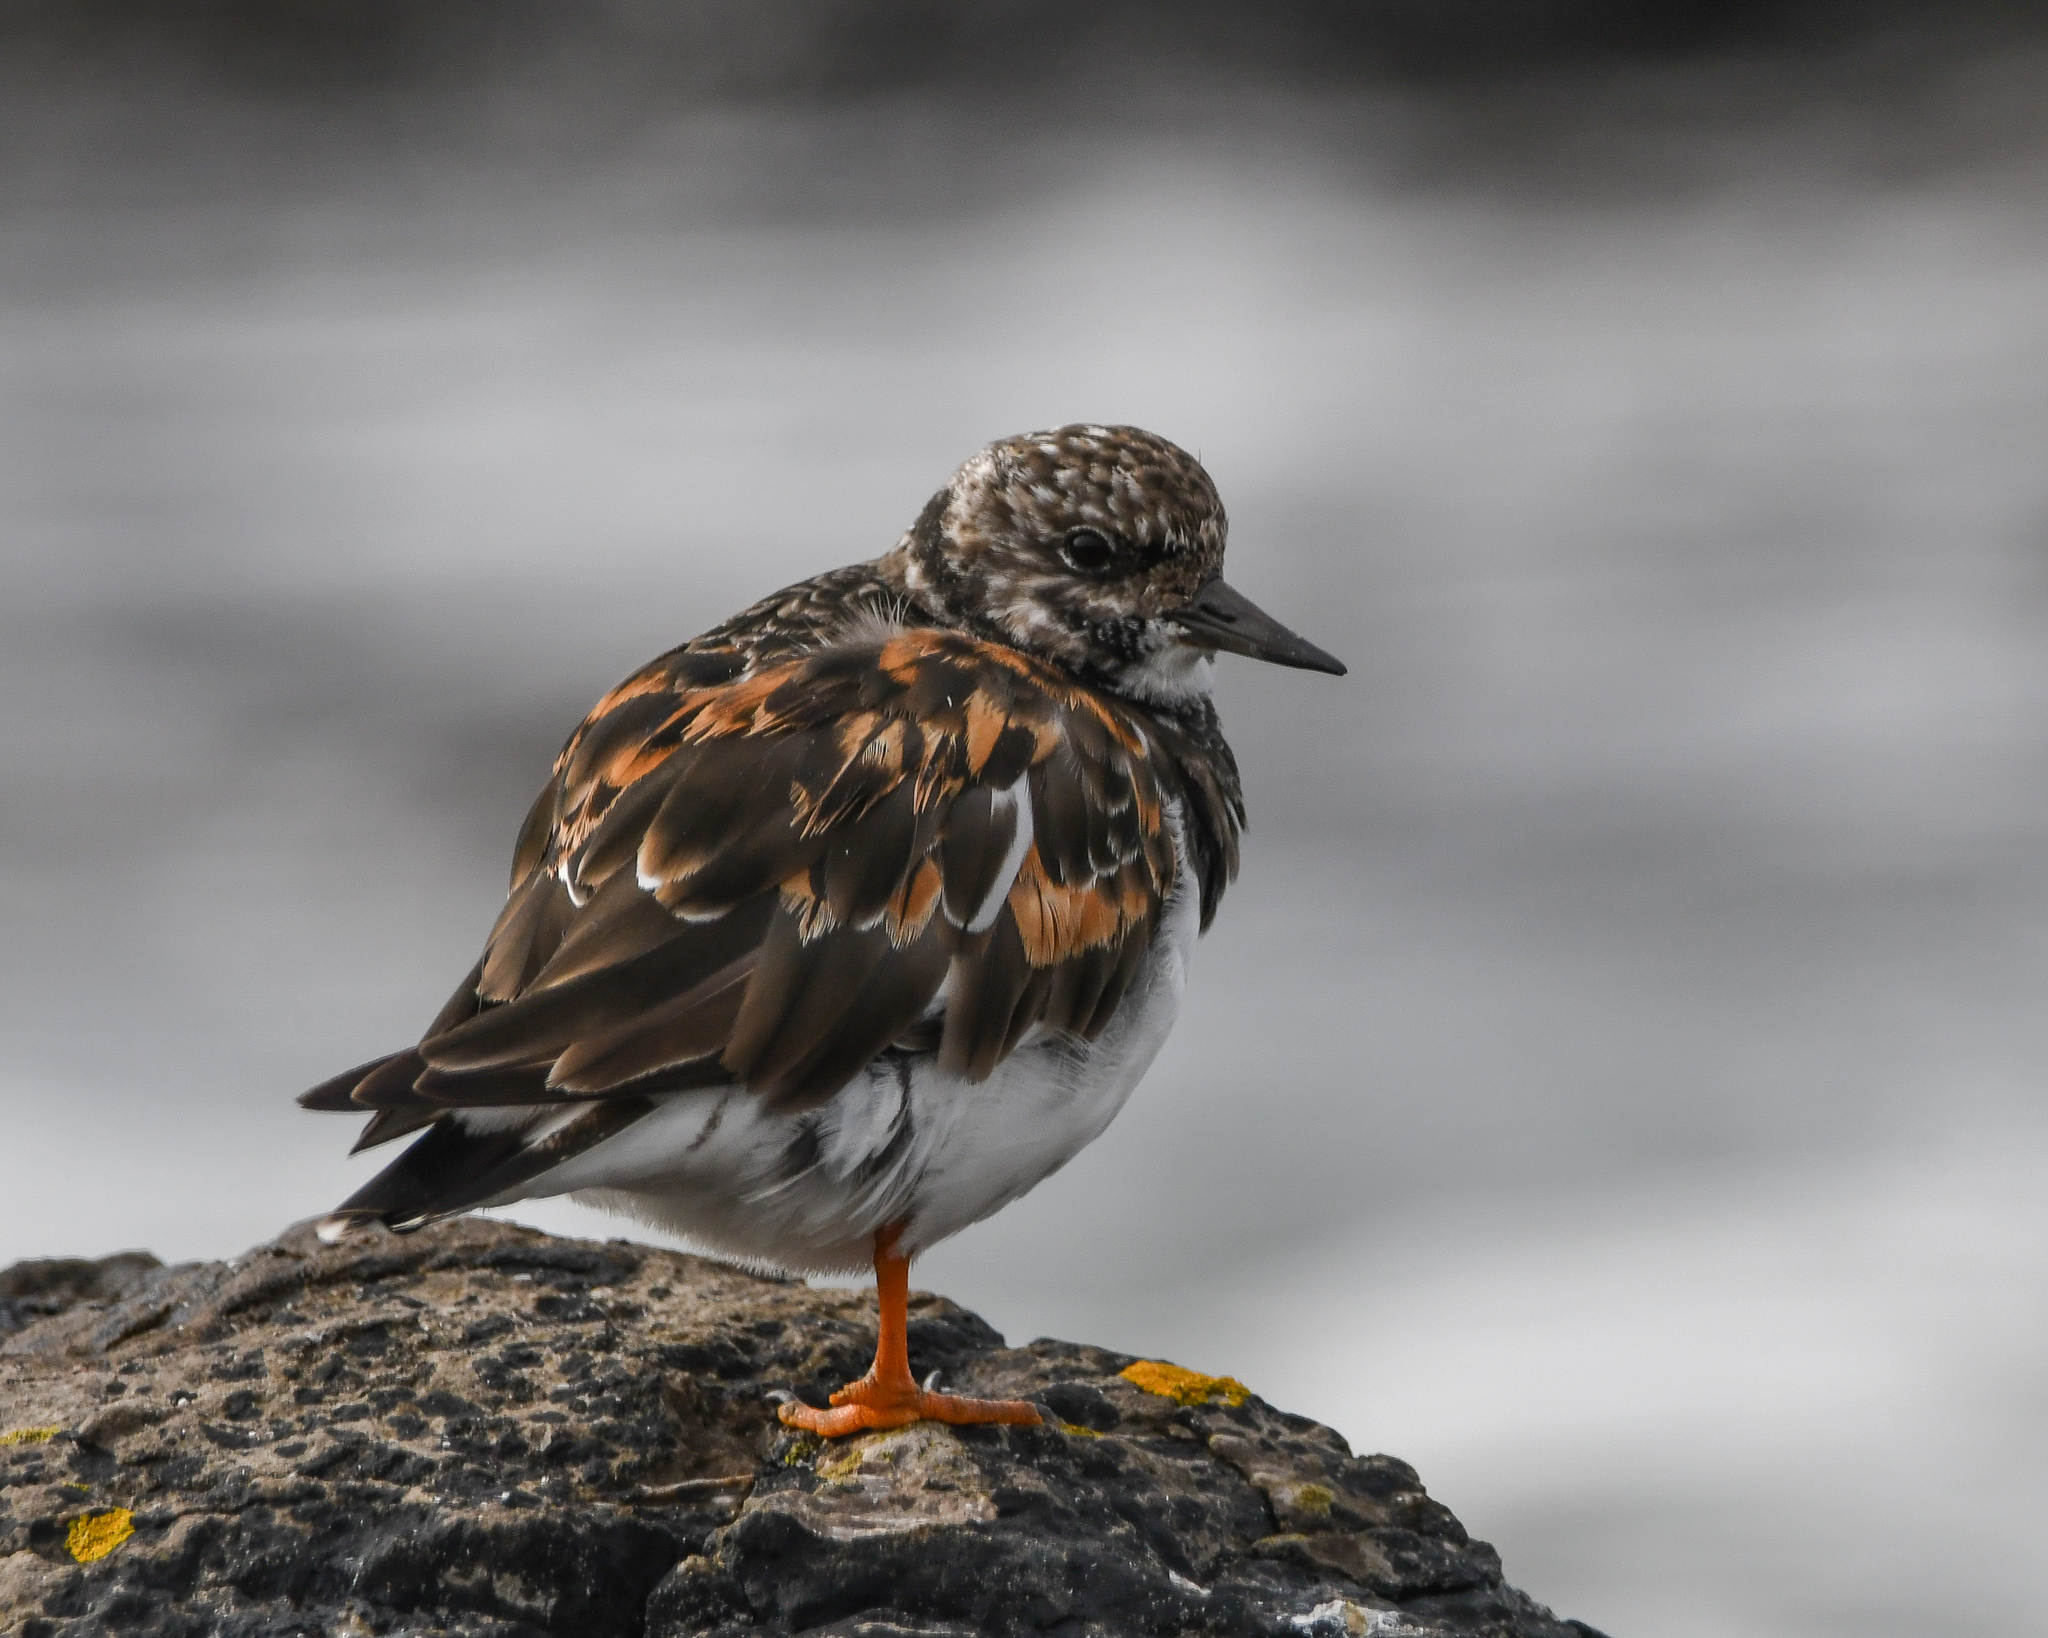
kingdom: Animalia
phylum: Chordata
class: Aves
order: Charadriiformes
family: Scolopacidae
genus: Arenaria
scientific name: Arenaria interpres
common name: Ruddy turnstone
